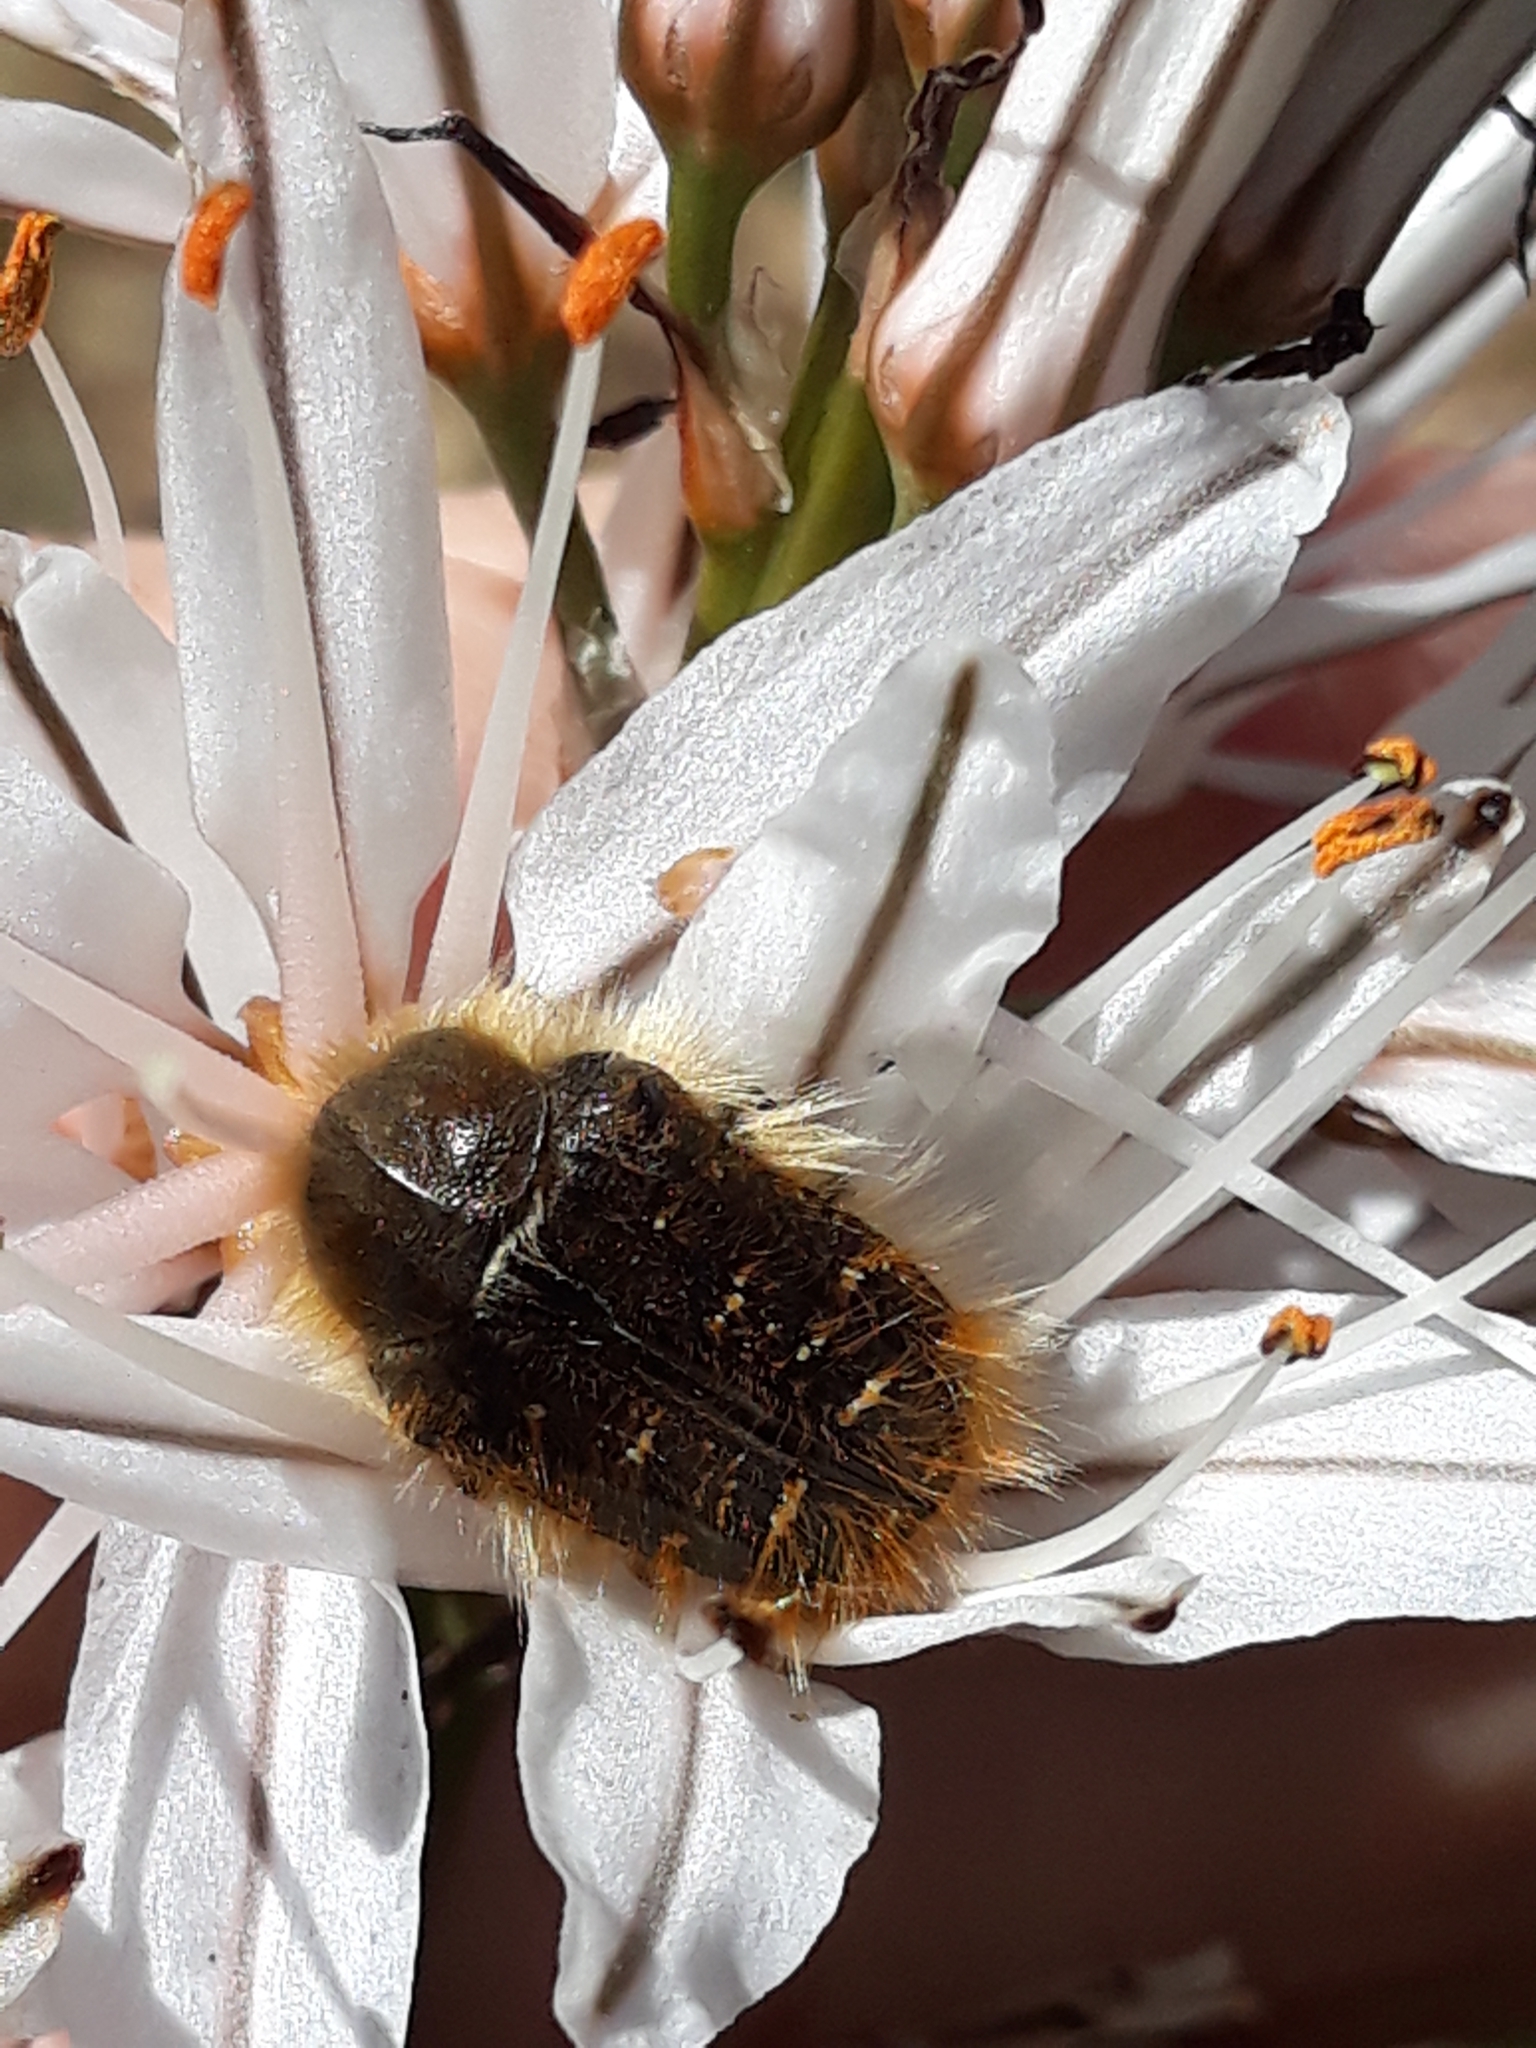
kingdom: Animalia
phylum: Arthropoda
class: Insecta
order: Coleoptera
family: Scarabaeidae
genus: Tropinota
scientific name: Tropinota squalida
